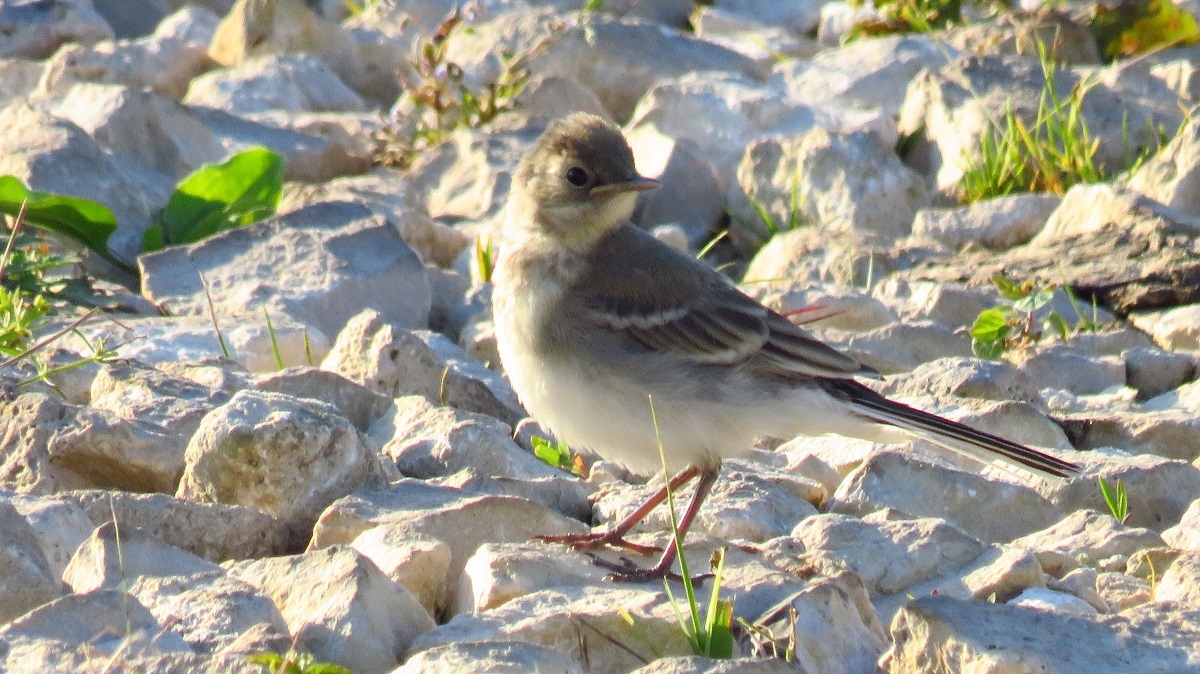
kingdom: Animalia
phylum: Chordata
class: Aves
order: Passeriformes
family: Motacillidae
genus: Motacilla
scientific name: Motacilla alba
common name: White wagtail
